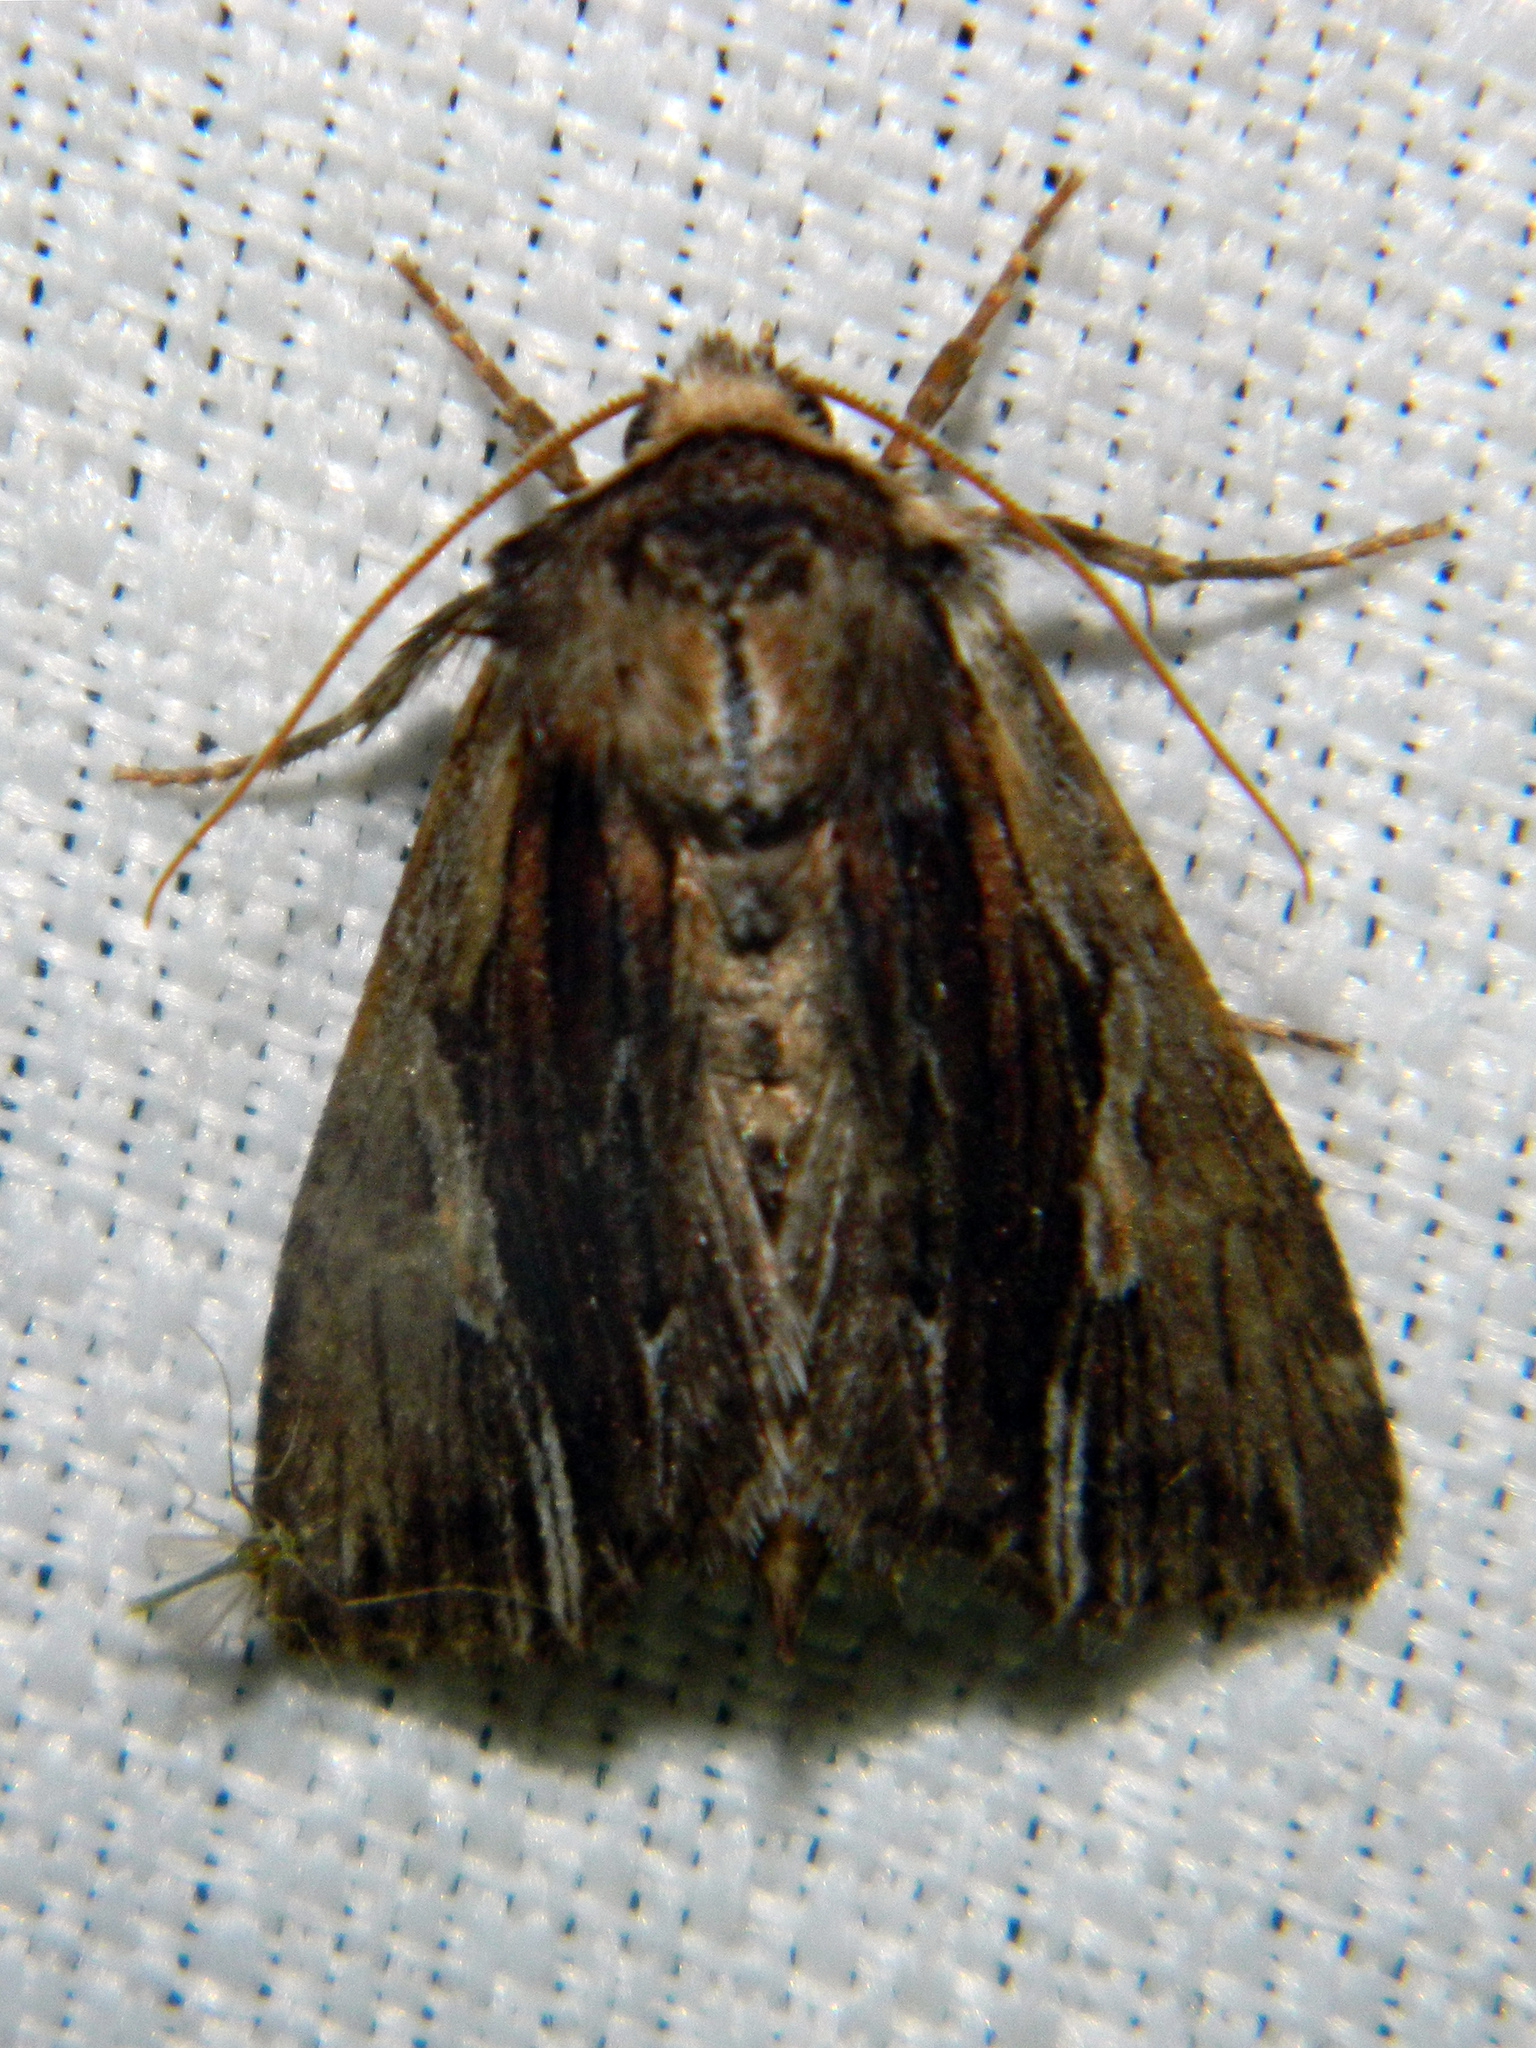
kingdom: Animalia
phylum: Arthropoda
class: Insecta
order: Lepidoptera
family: Noctuidae
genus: Achatia
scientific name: Achatia evicta
